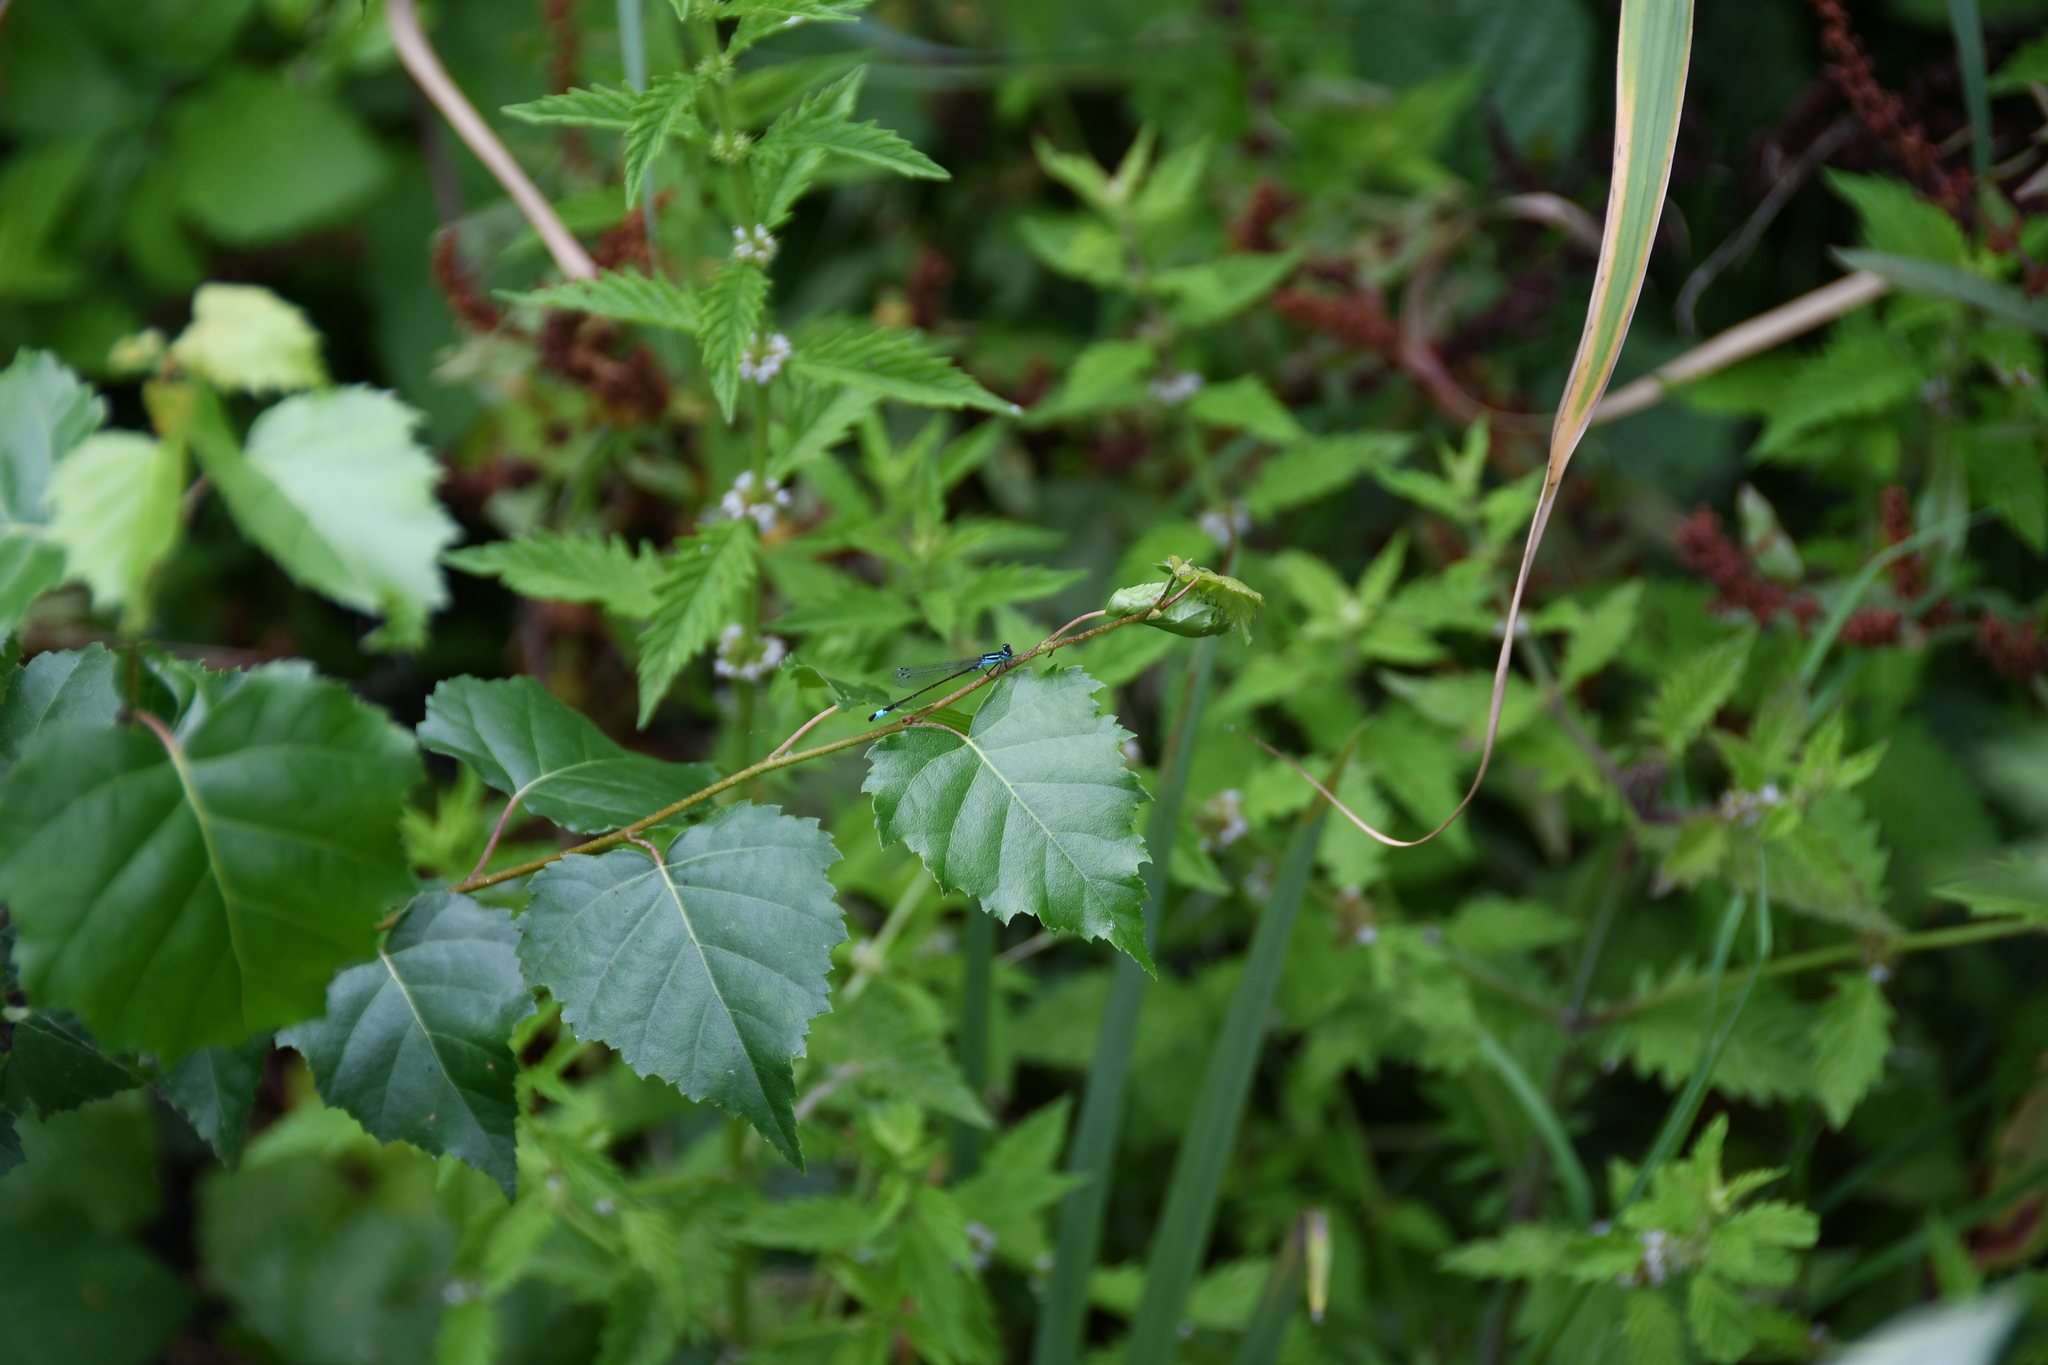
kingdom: Animalia
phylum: Arthropoda
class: Insecta
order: Odonata
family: Coenagrionidae
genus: Ischnura
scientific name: Ischnura elegans
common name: Blue-tailed damselfly
